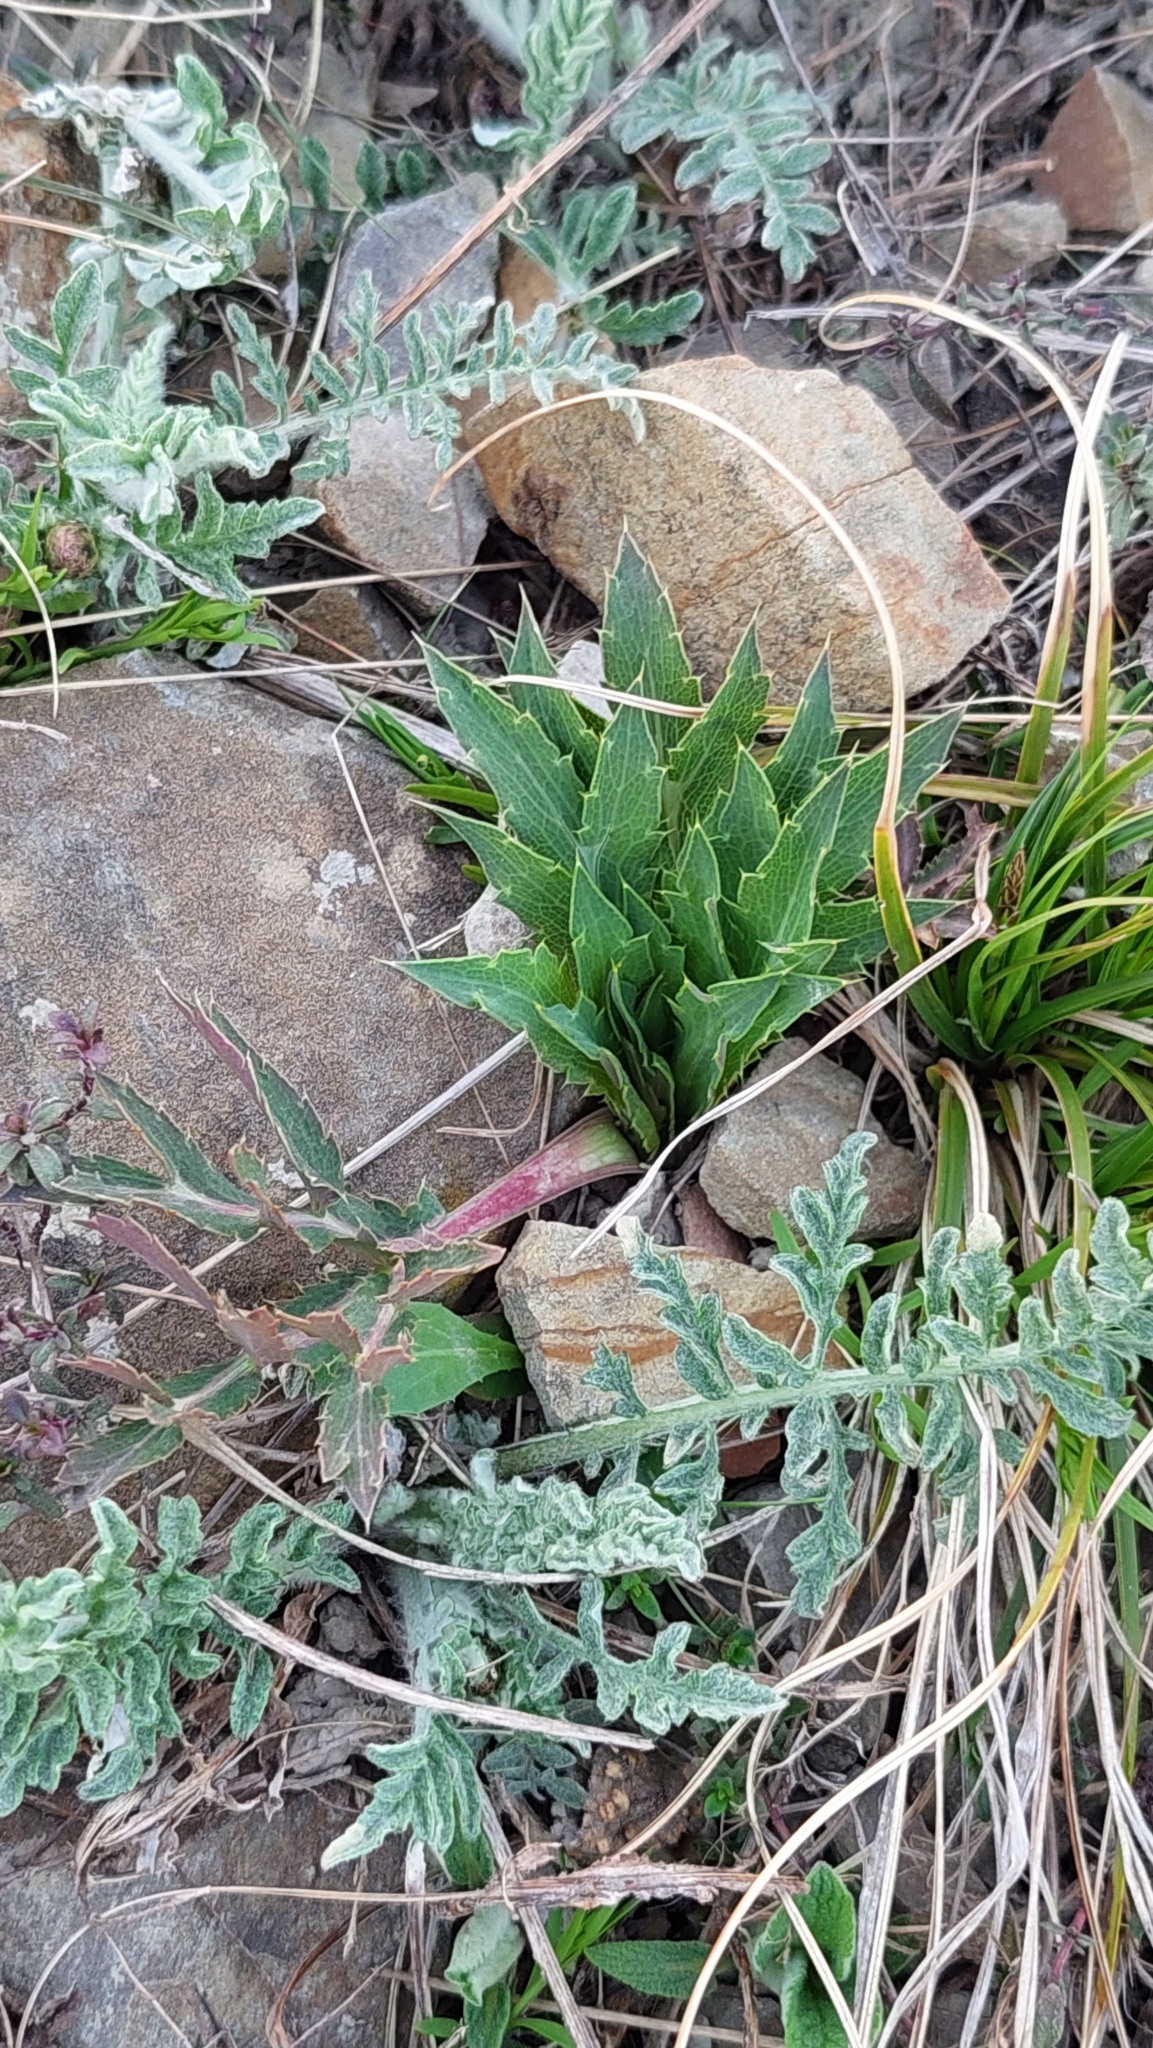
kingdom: Plantae
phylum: Tracheophyta
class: Magnoliopsida
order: Apiales
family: Apiaceae
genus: Eryngium
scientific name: Eryngium campestre
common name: Field eryngo
